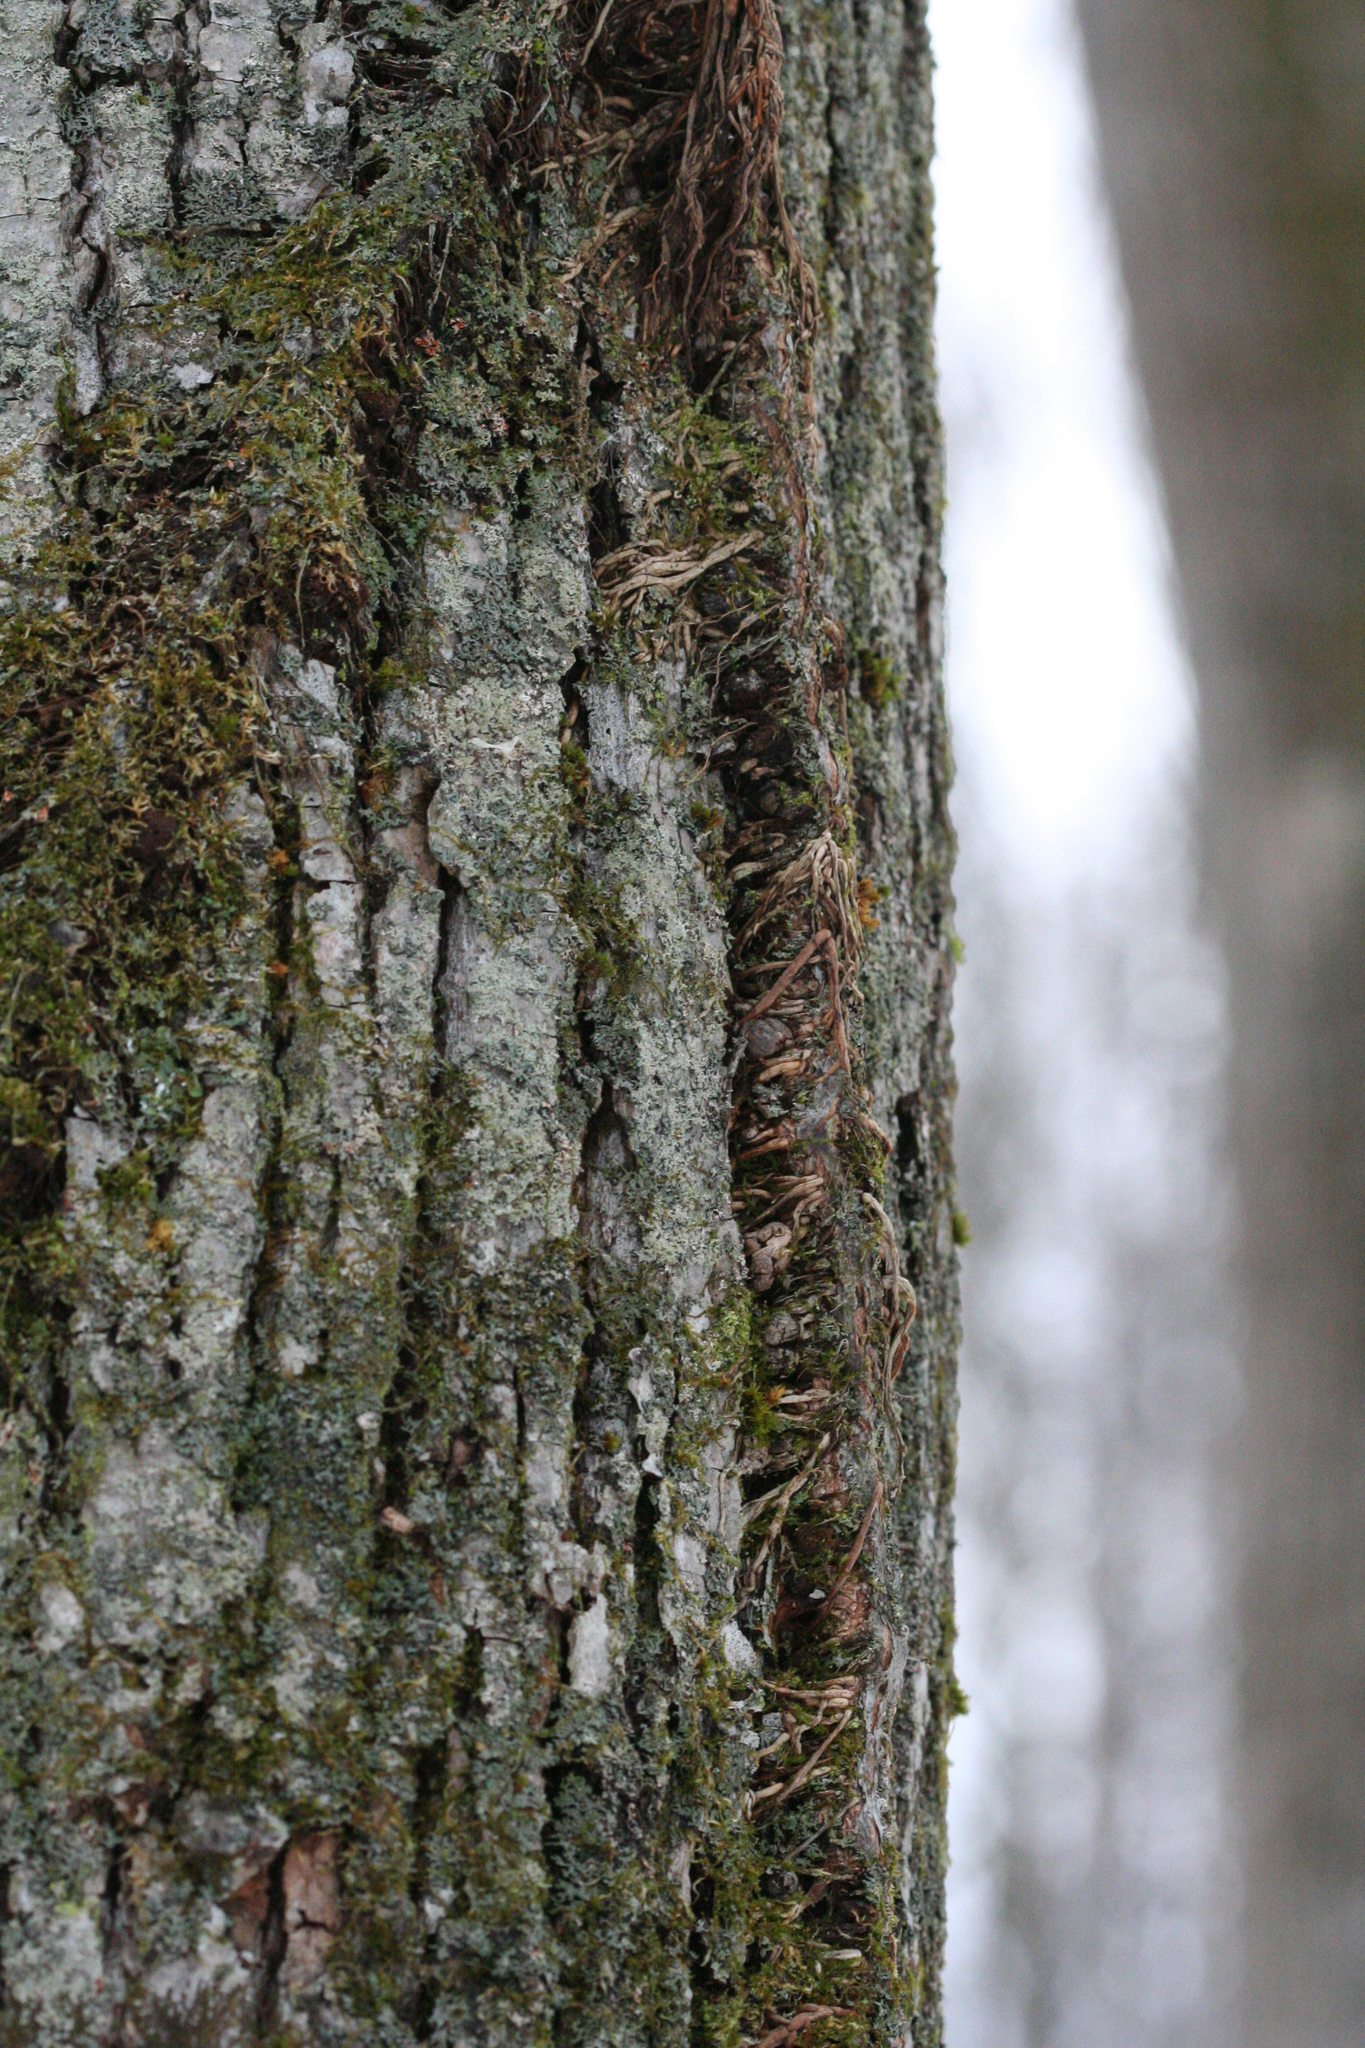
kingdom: Plantae
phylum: Tracheophyta
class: Magnoliopsida
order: Sapindales
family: Anacardiaceae
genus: Toxicodendron
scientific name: Toxicodendron radicans
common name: Poison ivy
